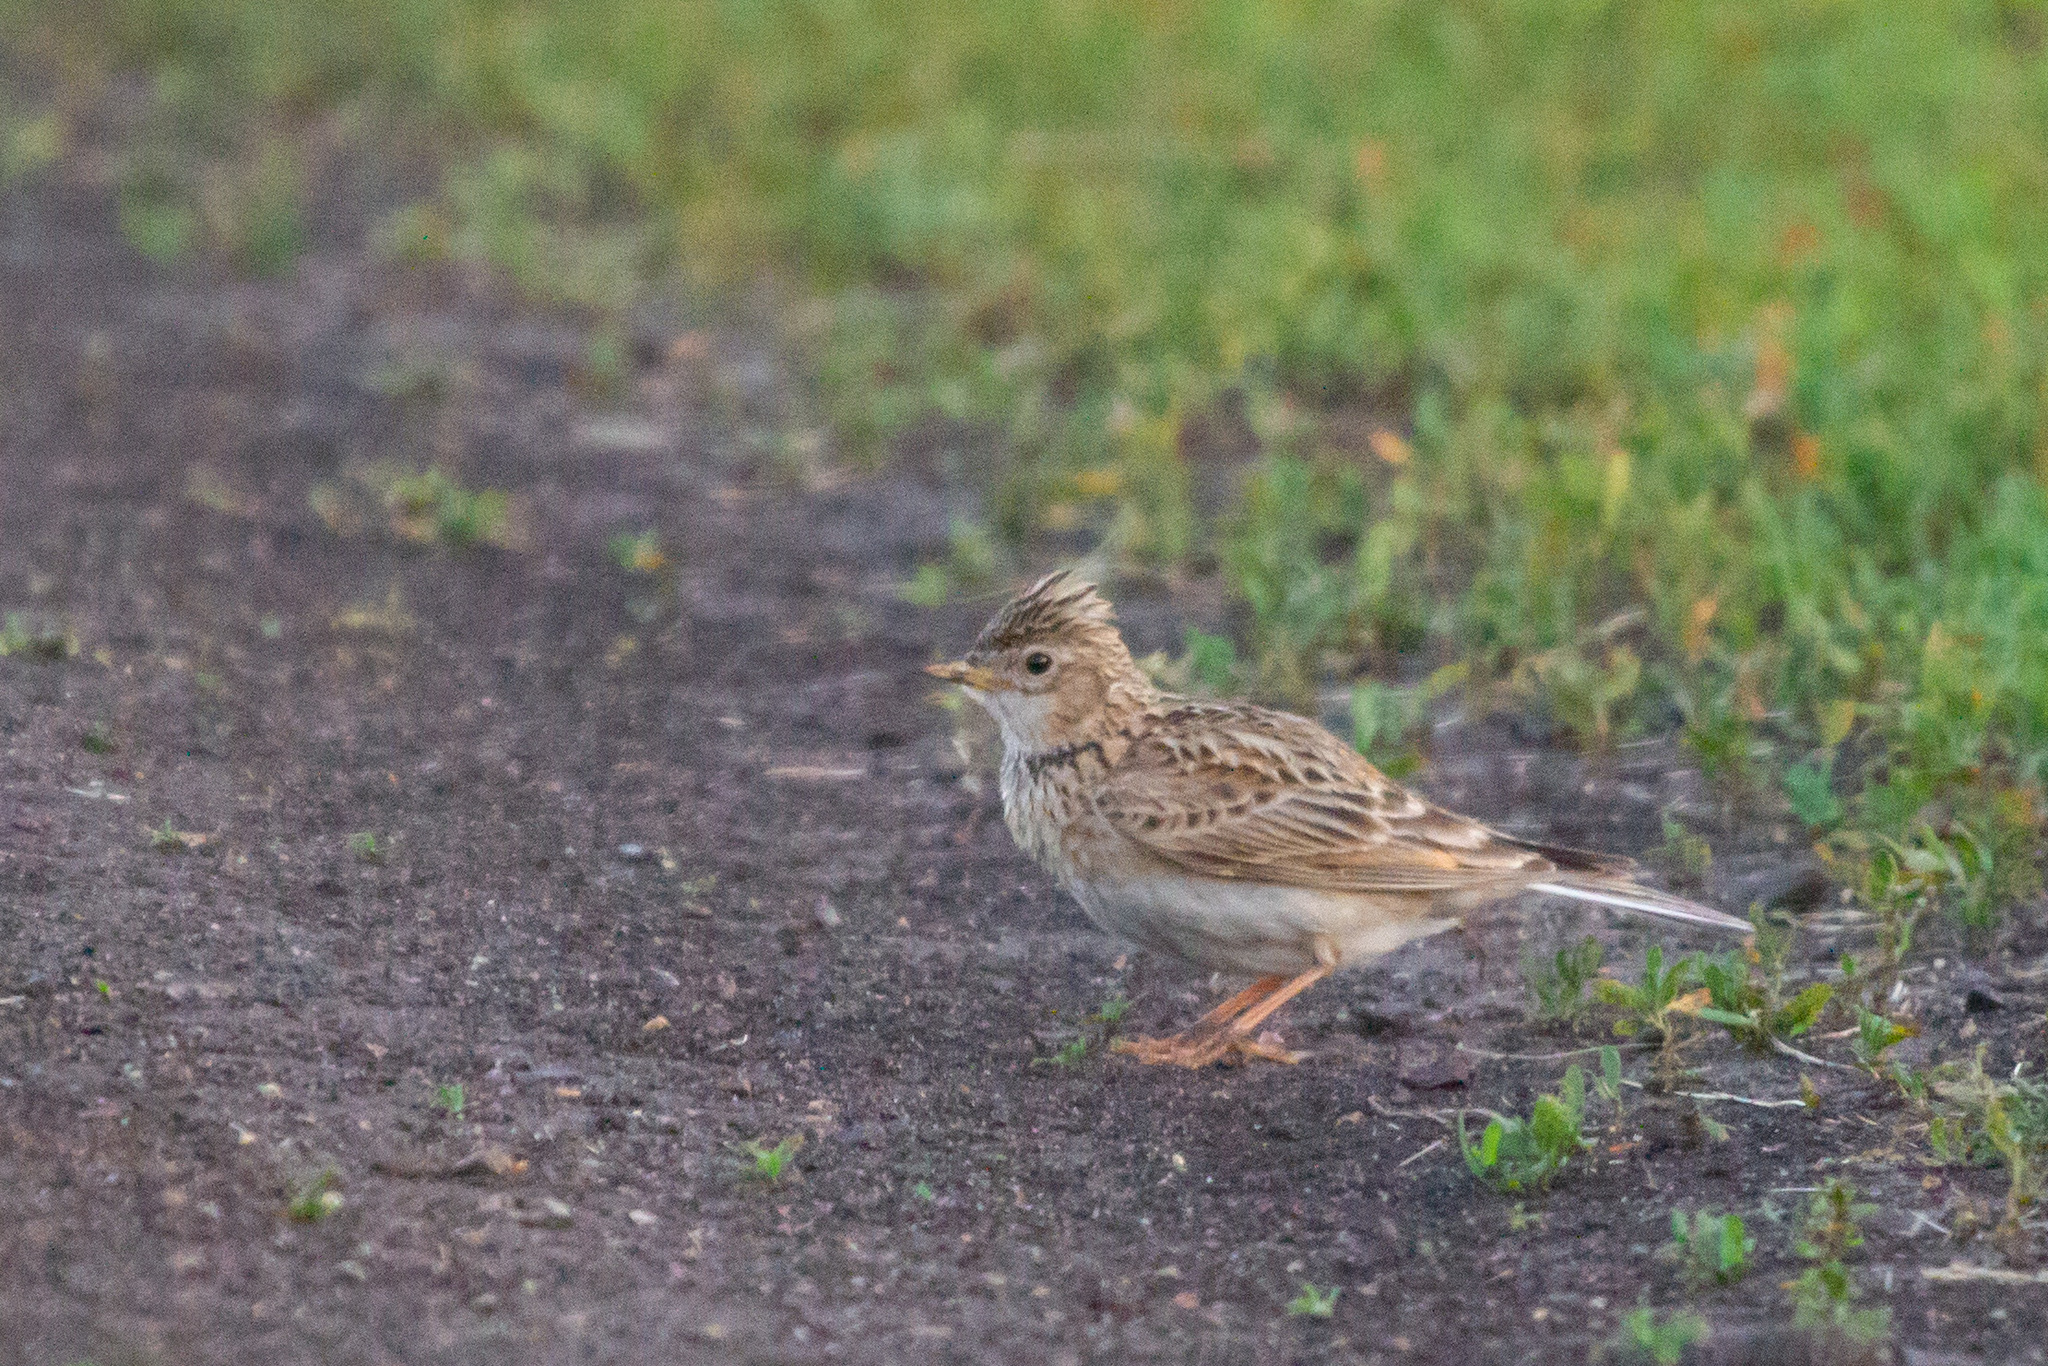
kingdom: Animalia
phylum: Chordata
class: Aves
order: Passeriformes
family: Alaudidae
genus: Alauda
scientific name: Alauda arvensis
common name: Eurasian skylark
